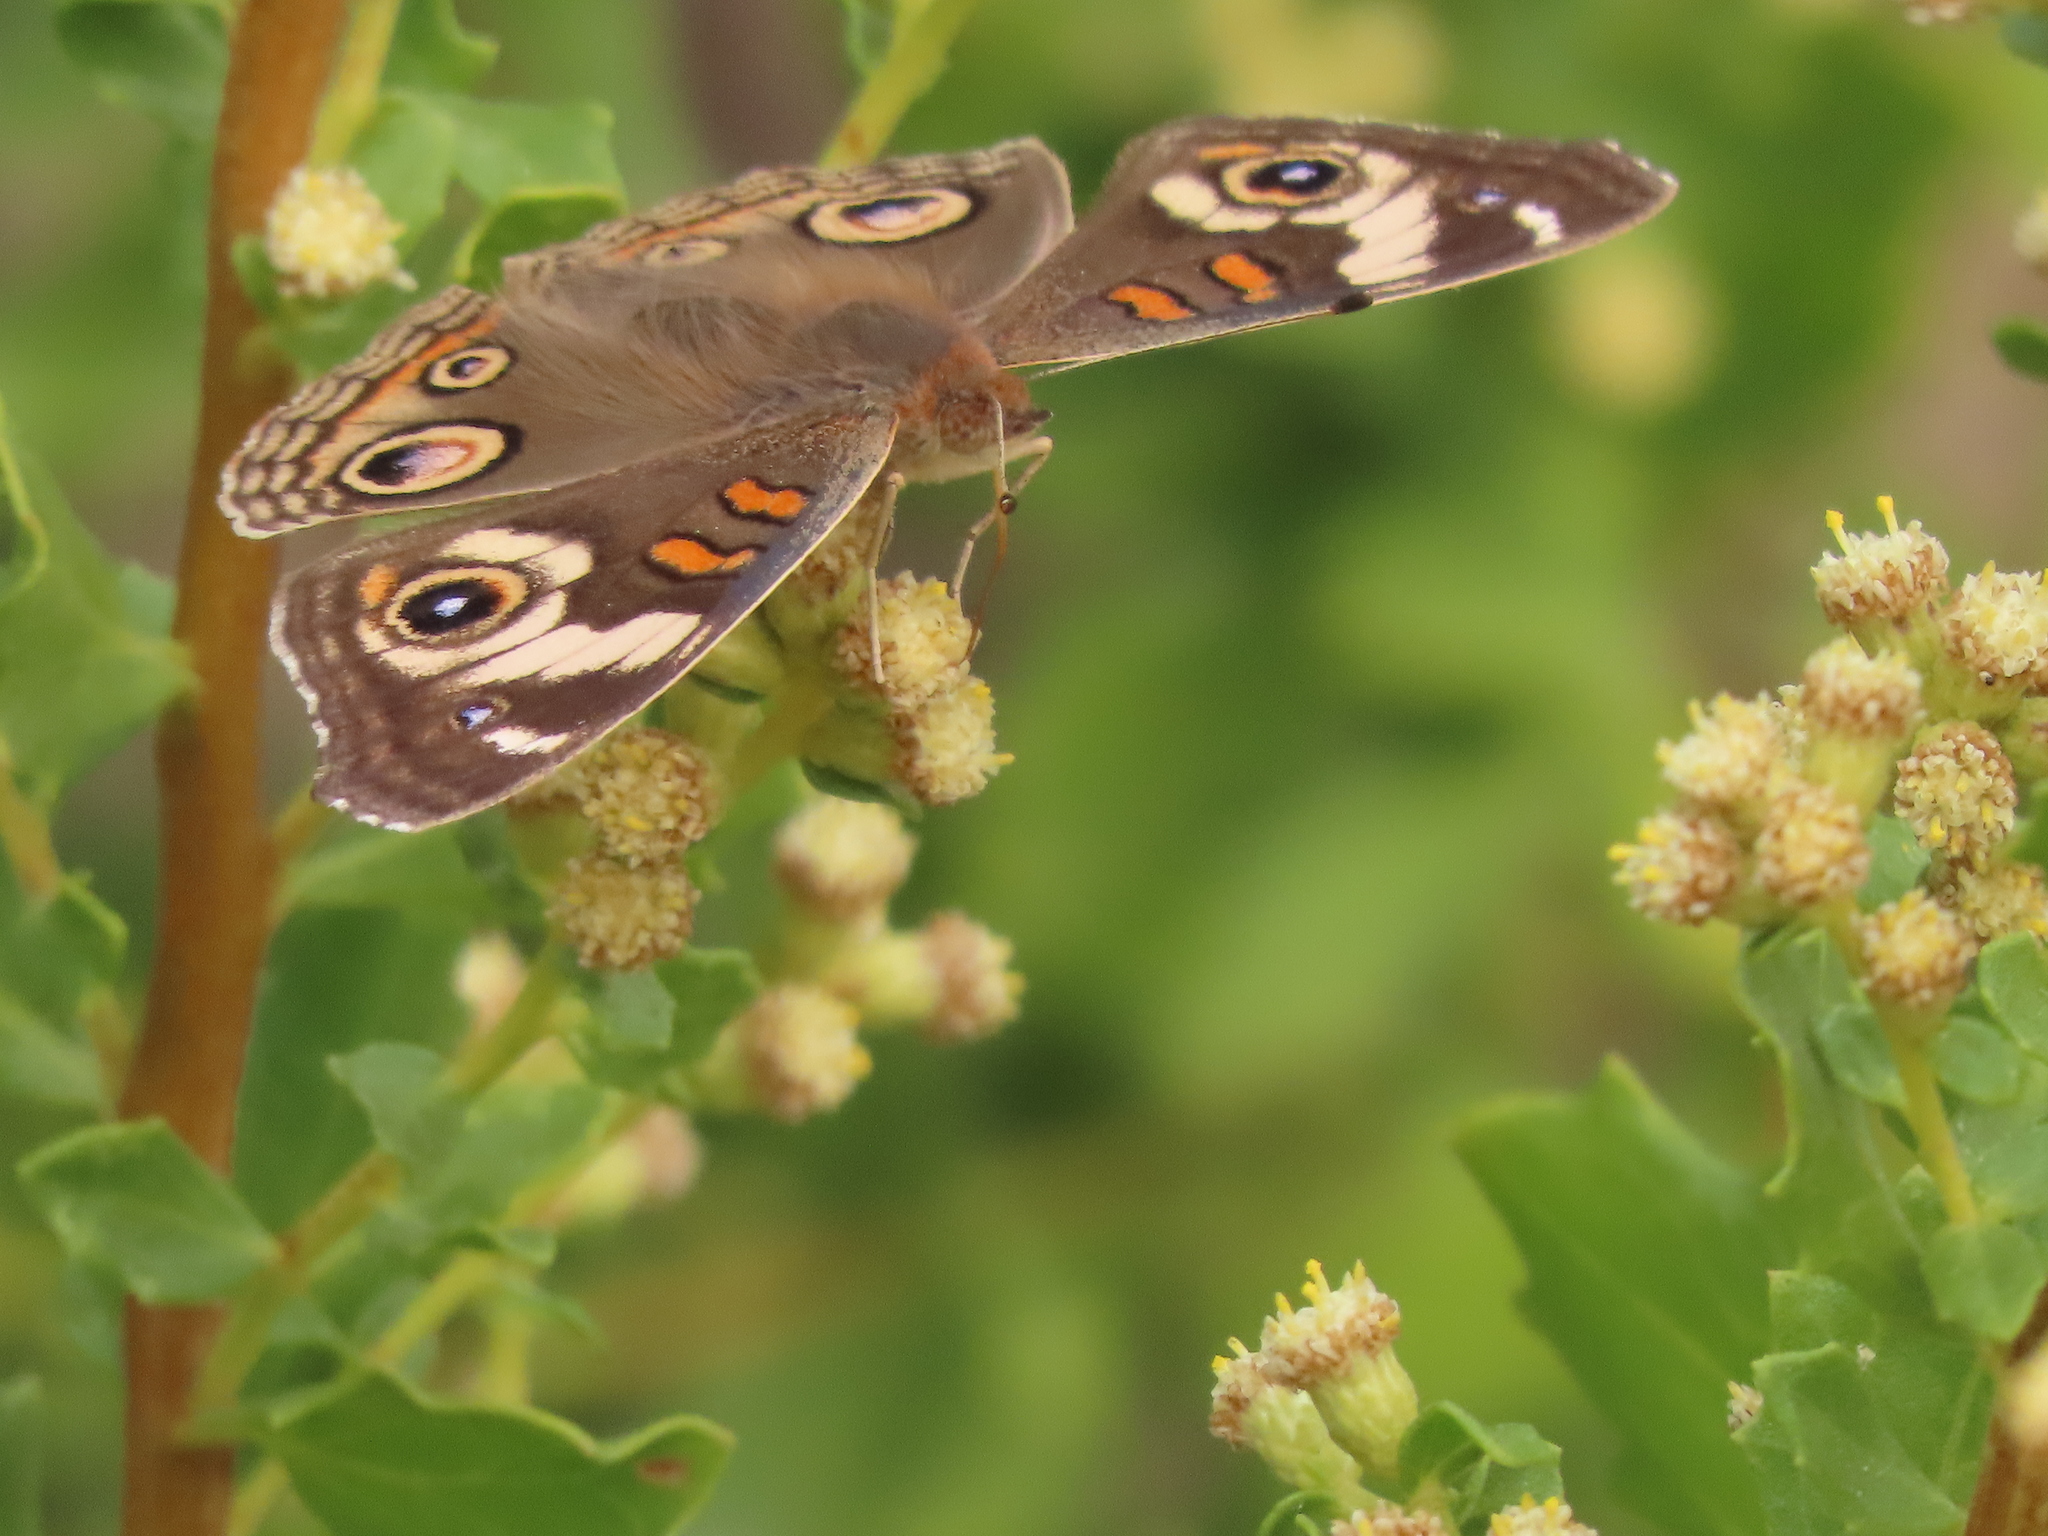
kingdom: Animalia
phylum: Arthropoda
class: Insecta
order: Lepidoptera
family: Nymphalidae
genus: Junonia
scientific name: Junonia grisea
